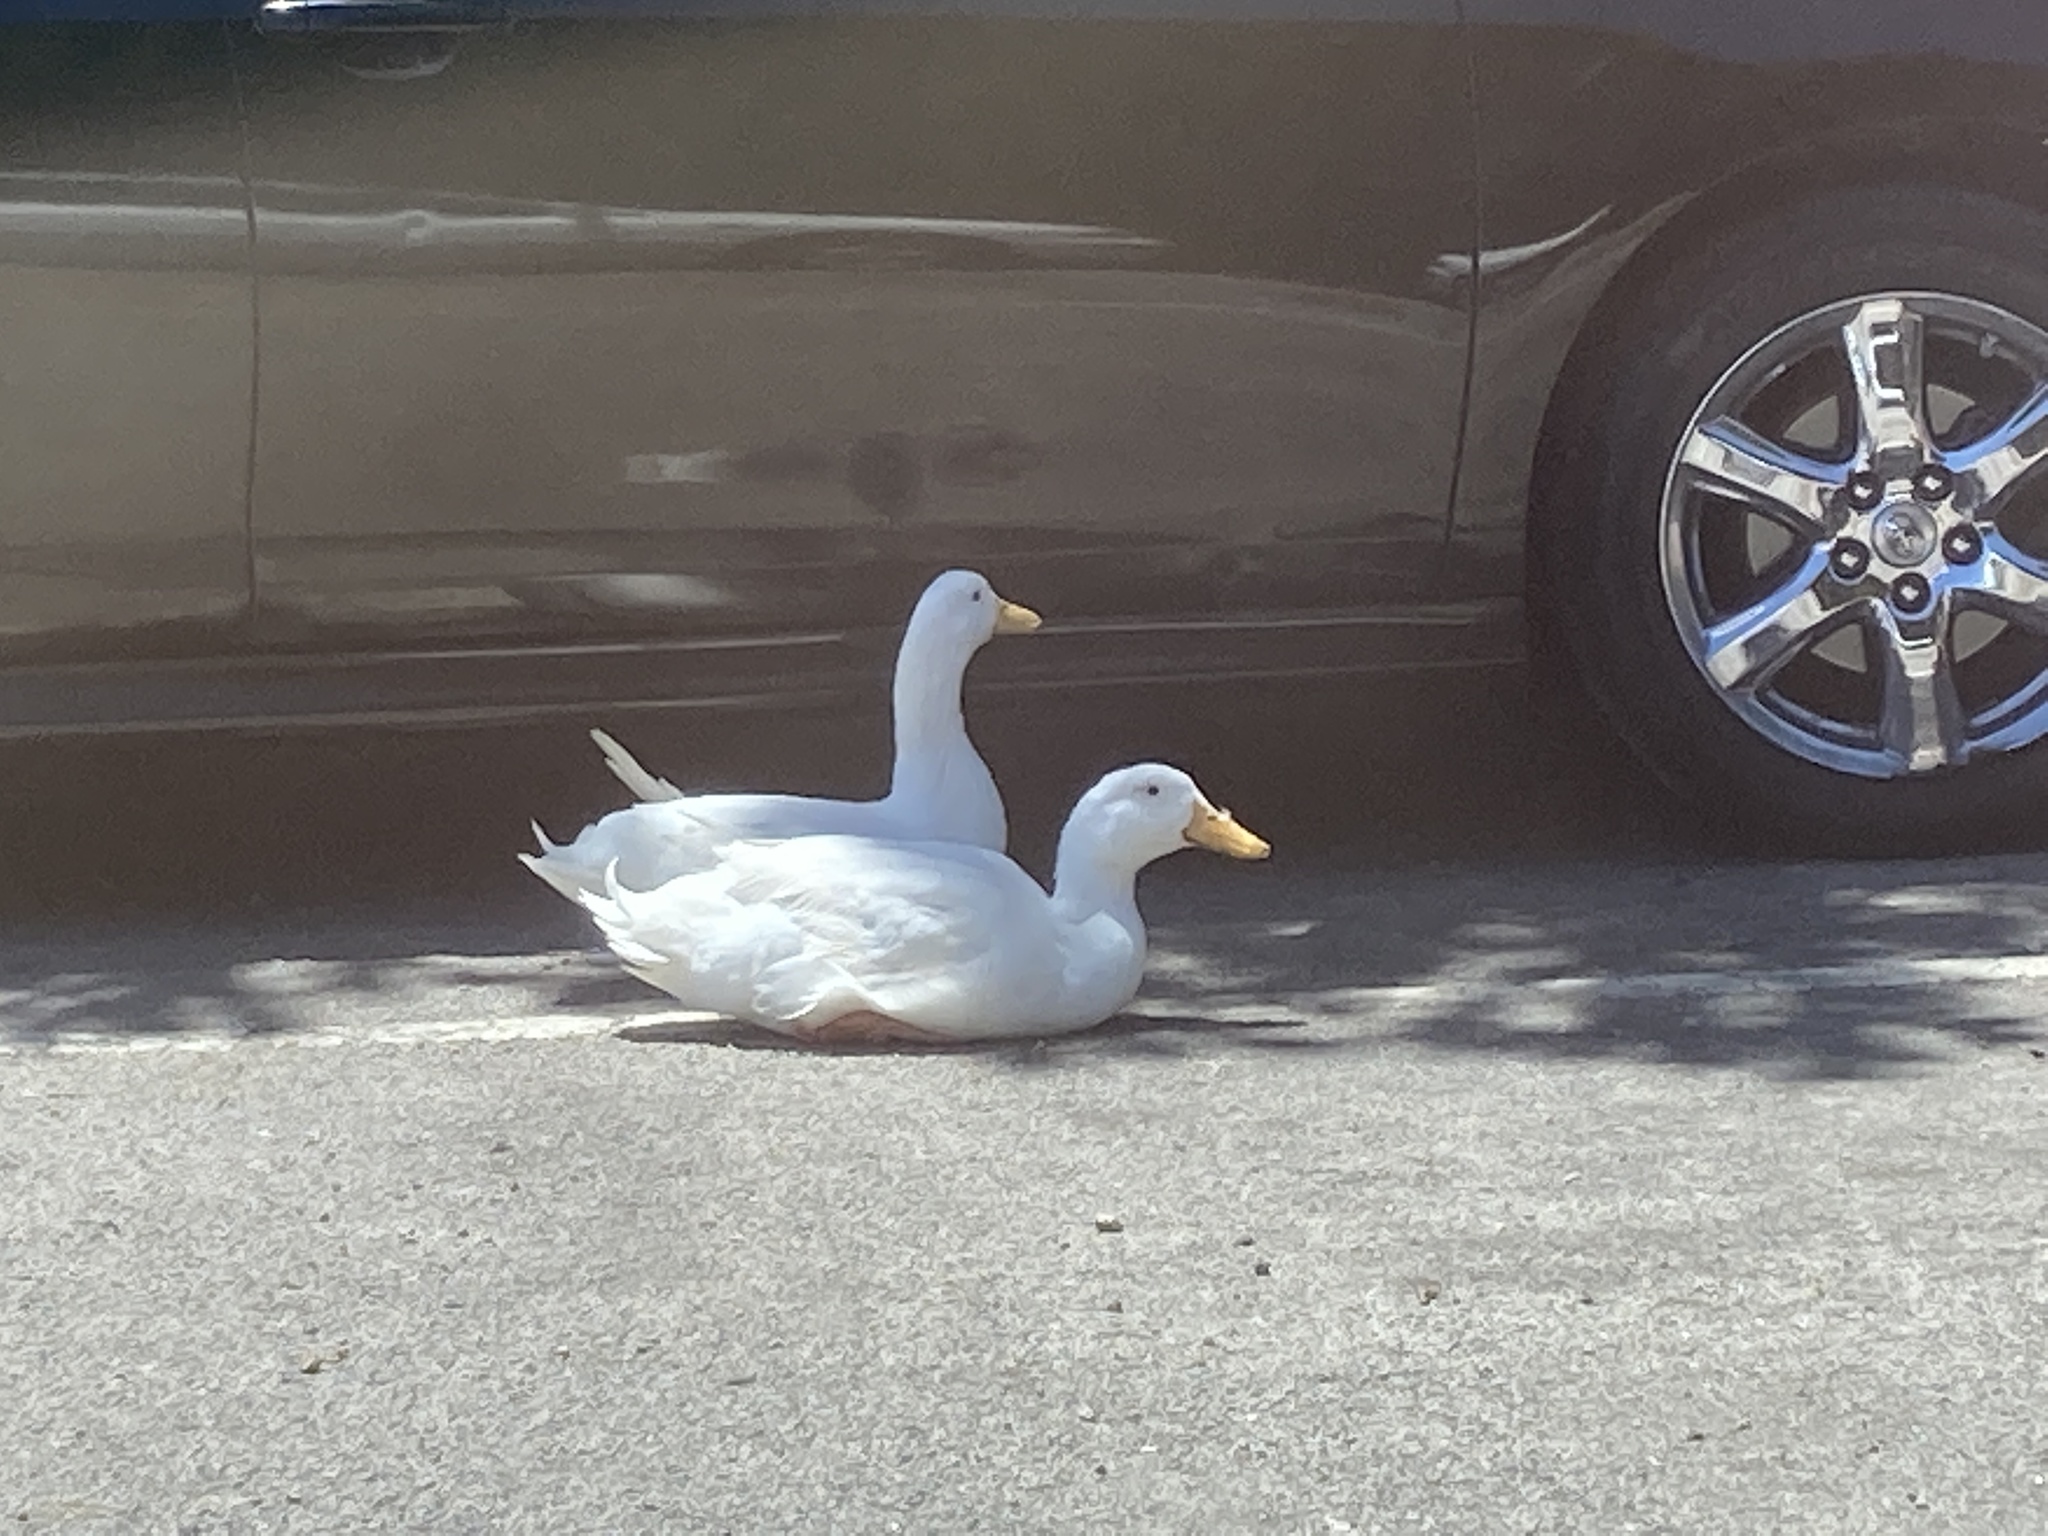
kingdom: Animalia
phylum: Chordata
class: Aves
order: Anseriformes
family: Anatidae
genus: Anas
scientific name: Anas platyrhynchos
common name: Mallard
